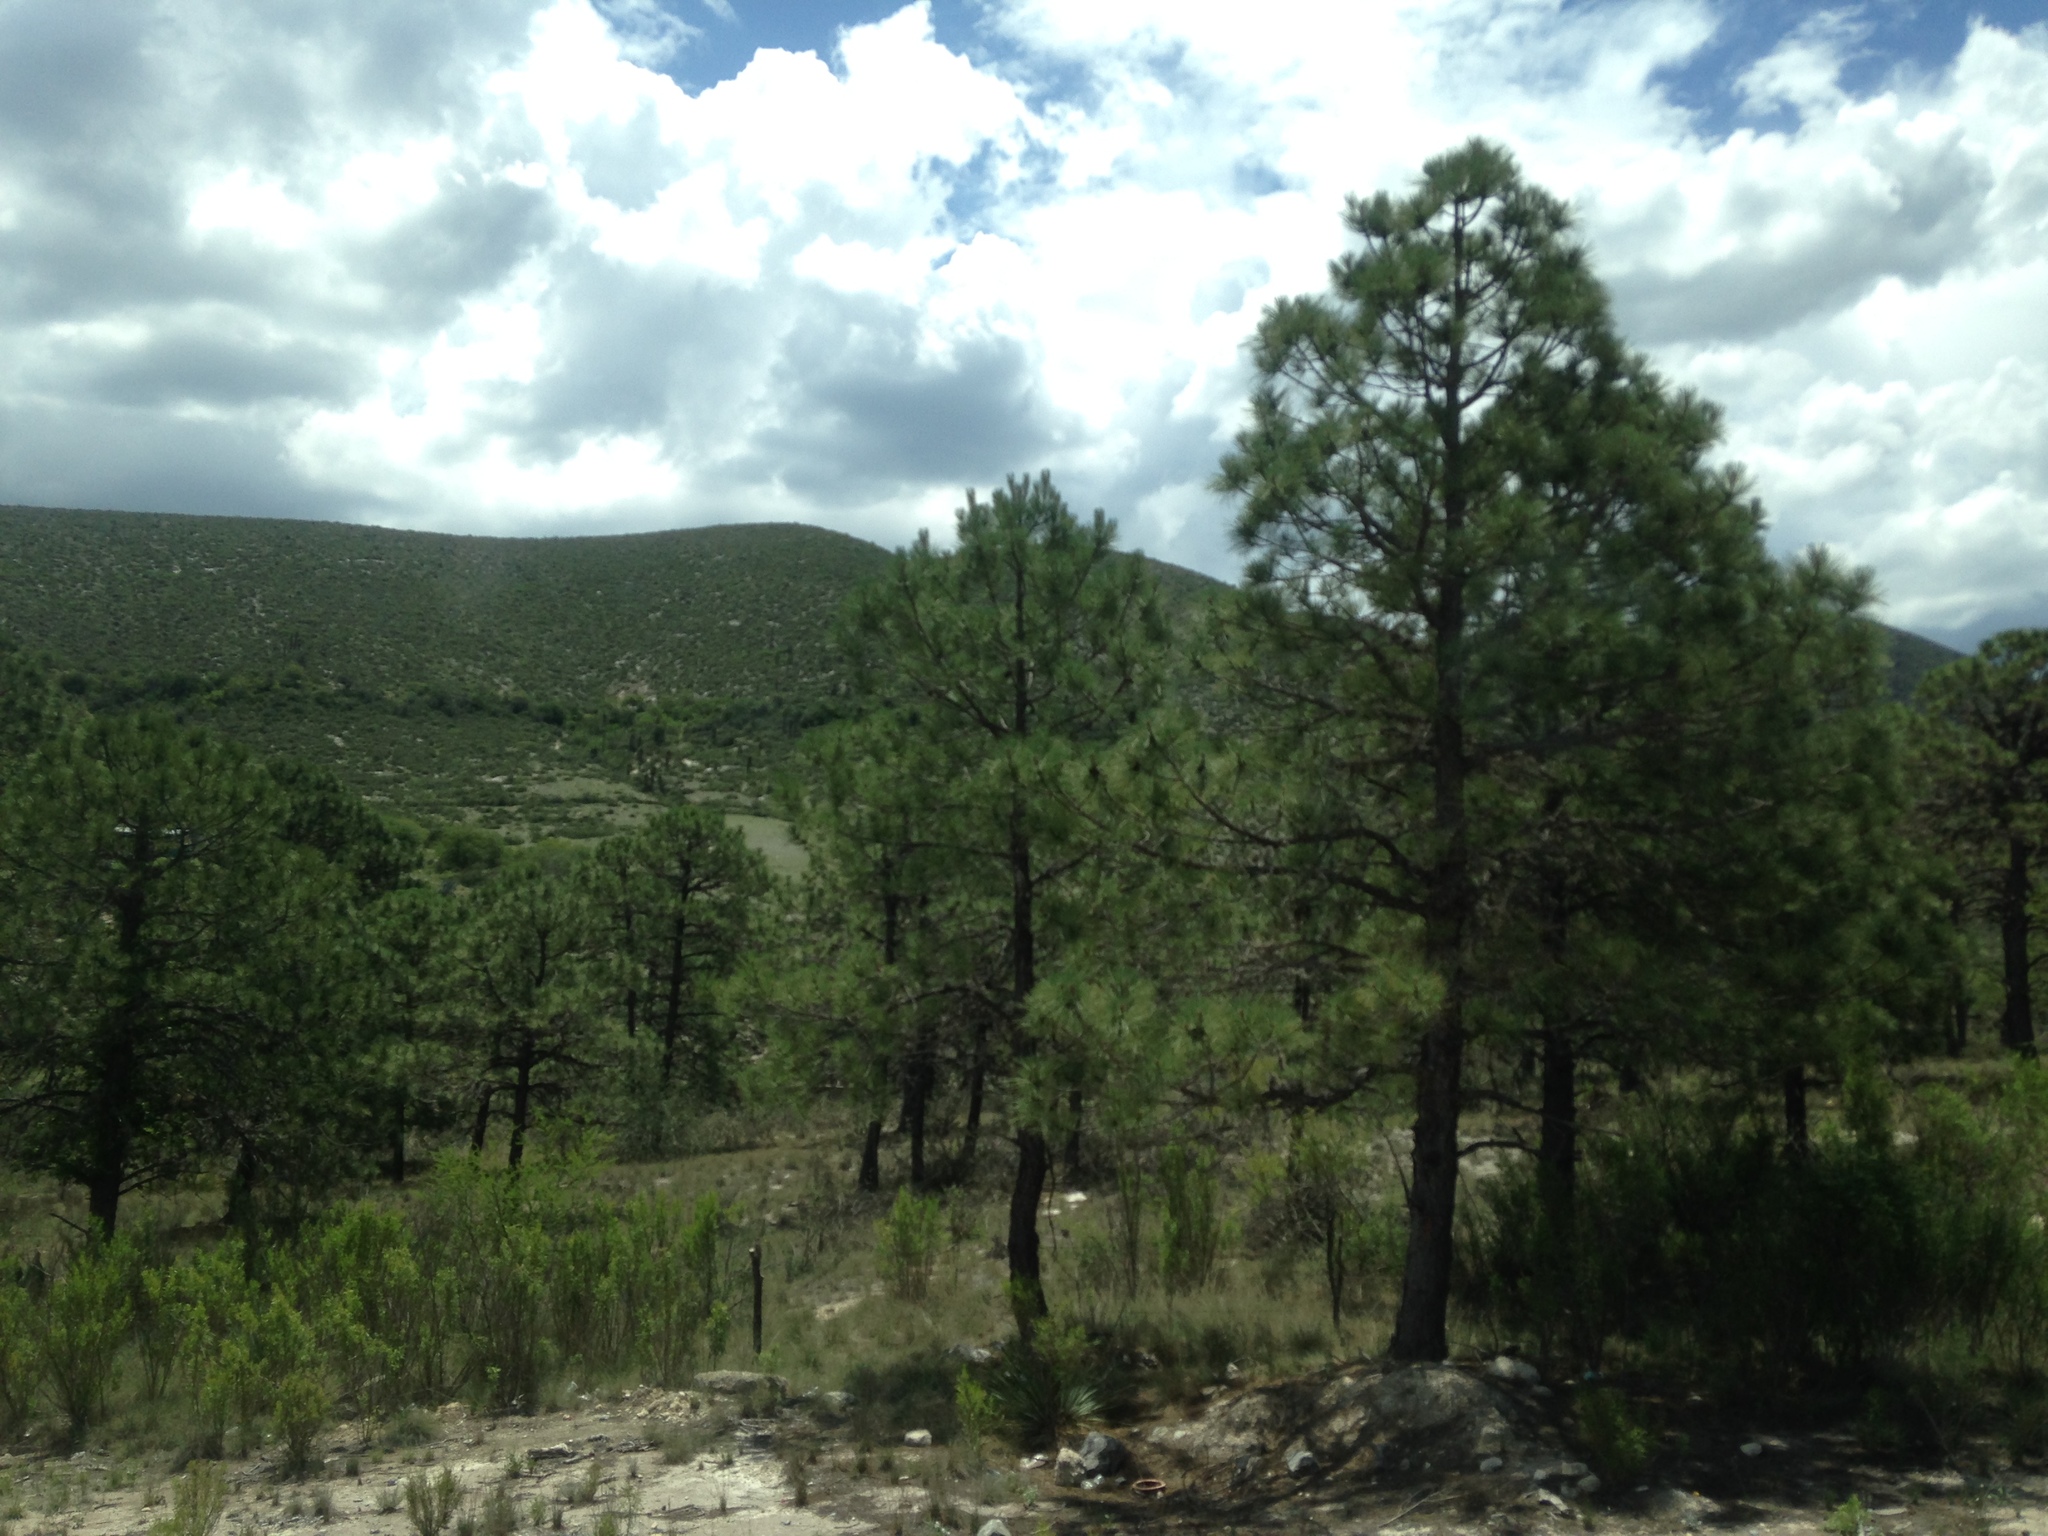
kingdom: Plantae
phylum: Tracheophyta
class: Pinopsida
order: Pinales
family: Pinaceae
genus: Pinus
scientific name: Pinus arizonica
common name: Arizona pine
